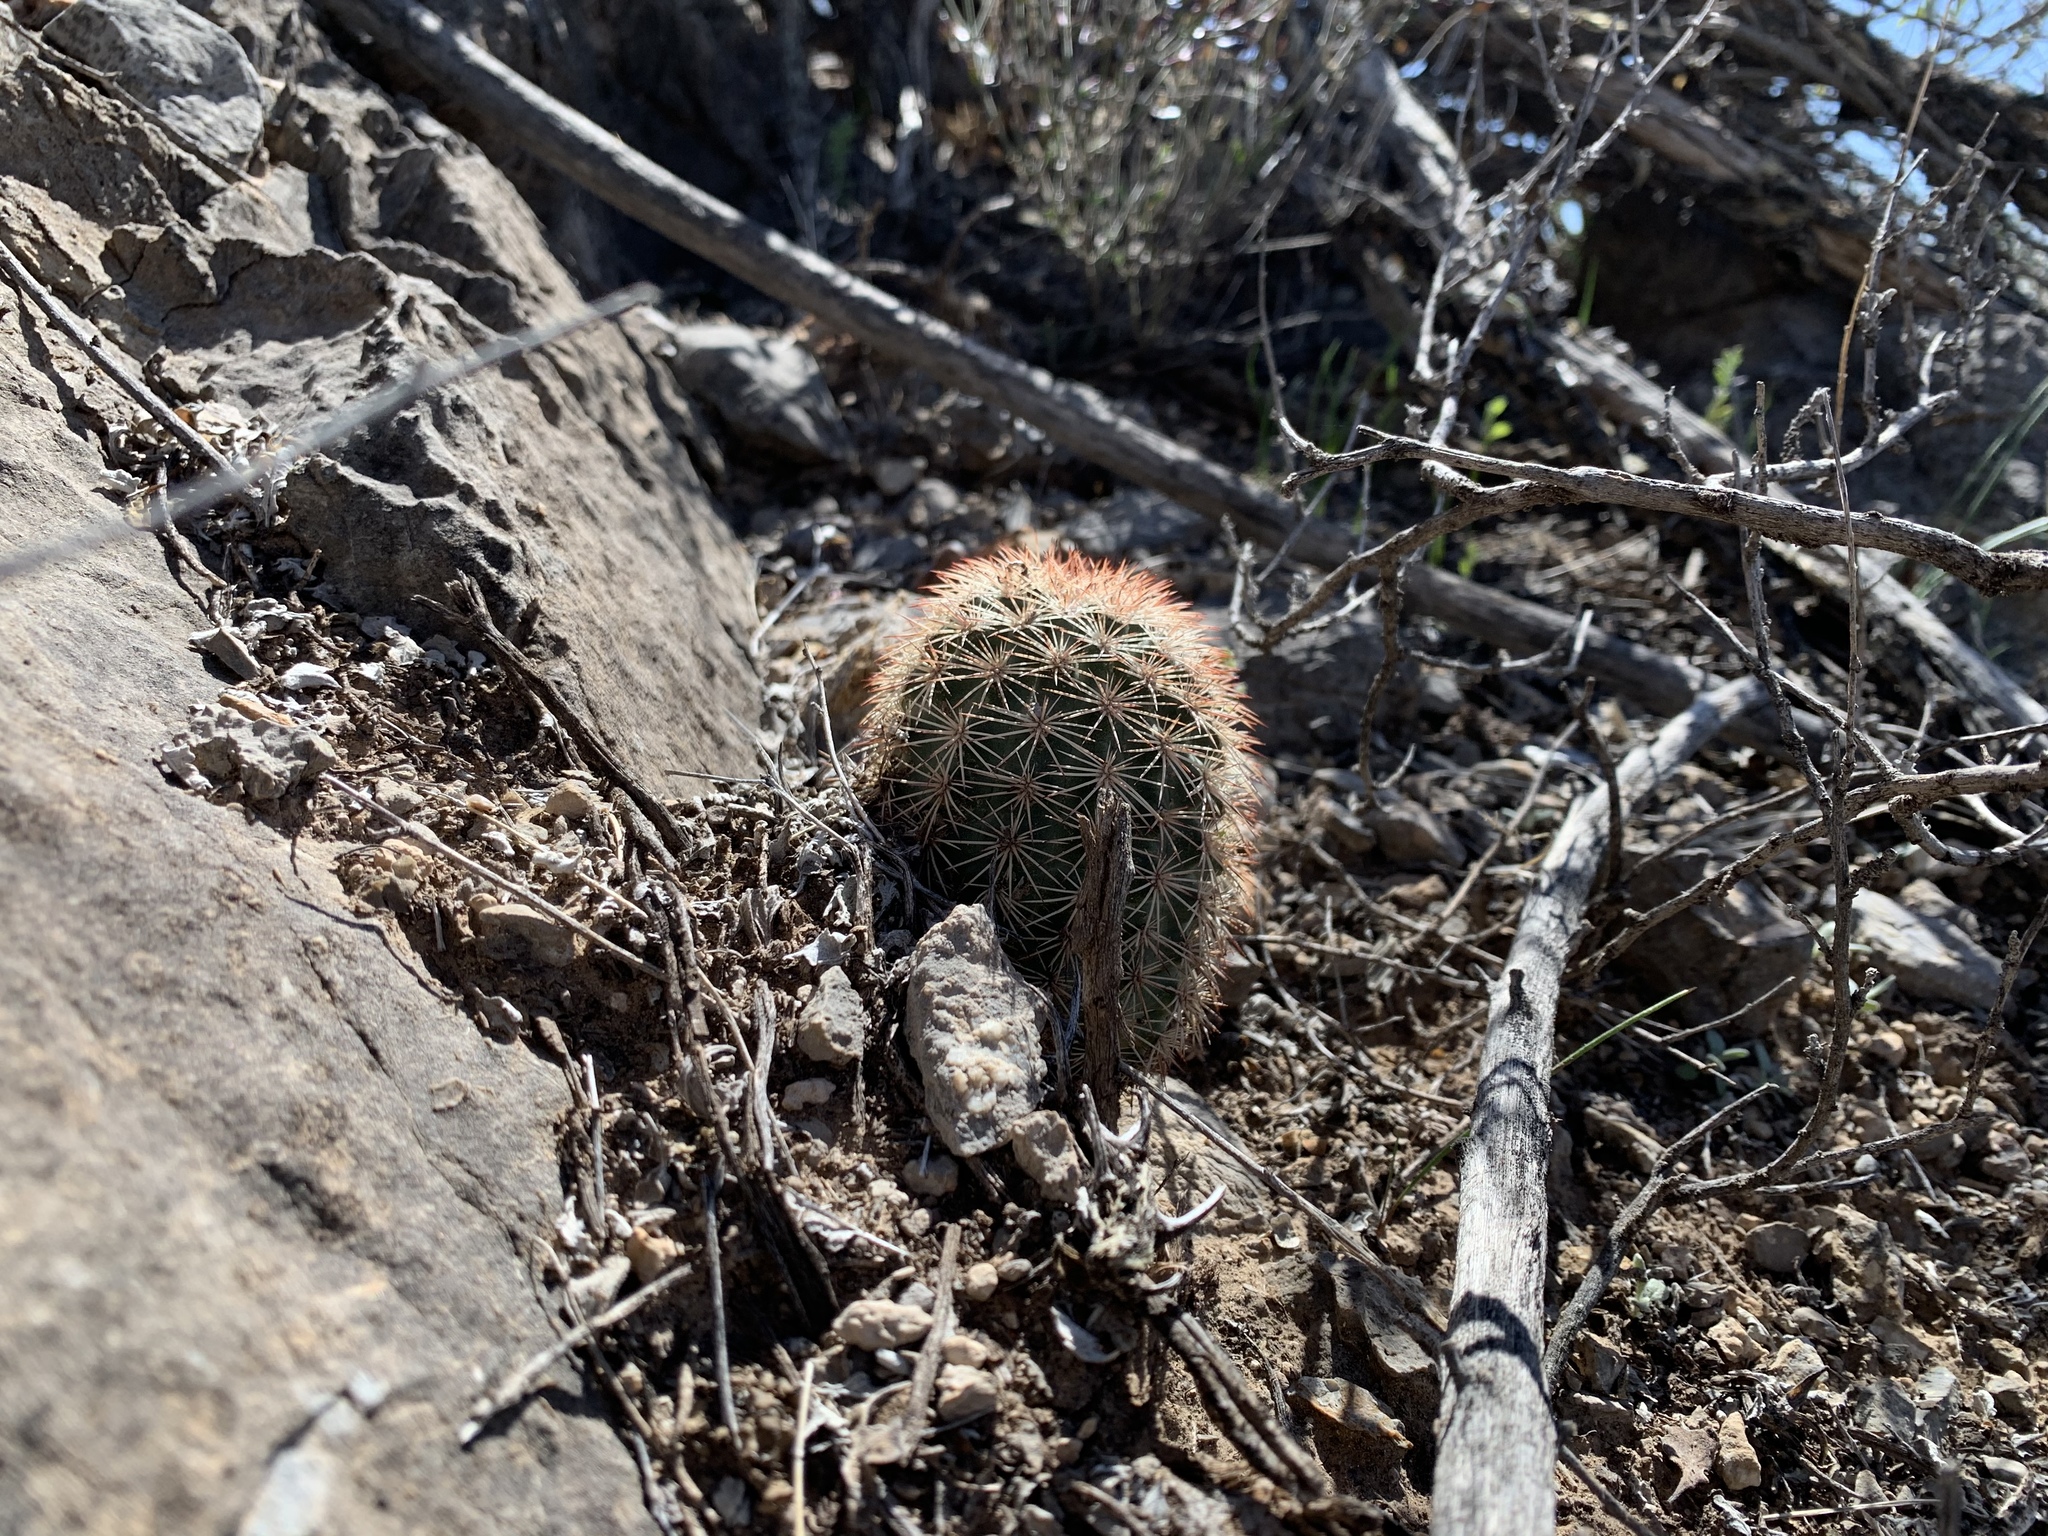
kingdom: Plantae
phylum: Tracheophyta
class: Magnoliopsida
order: Caryophyllales
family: Cactaceae
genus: Echinocereus
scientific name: Echinocereus dasyacanthus
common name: Spiny hedgehog cactus
